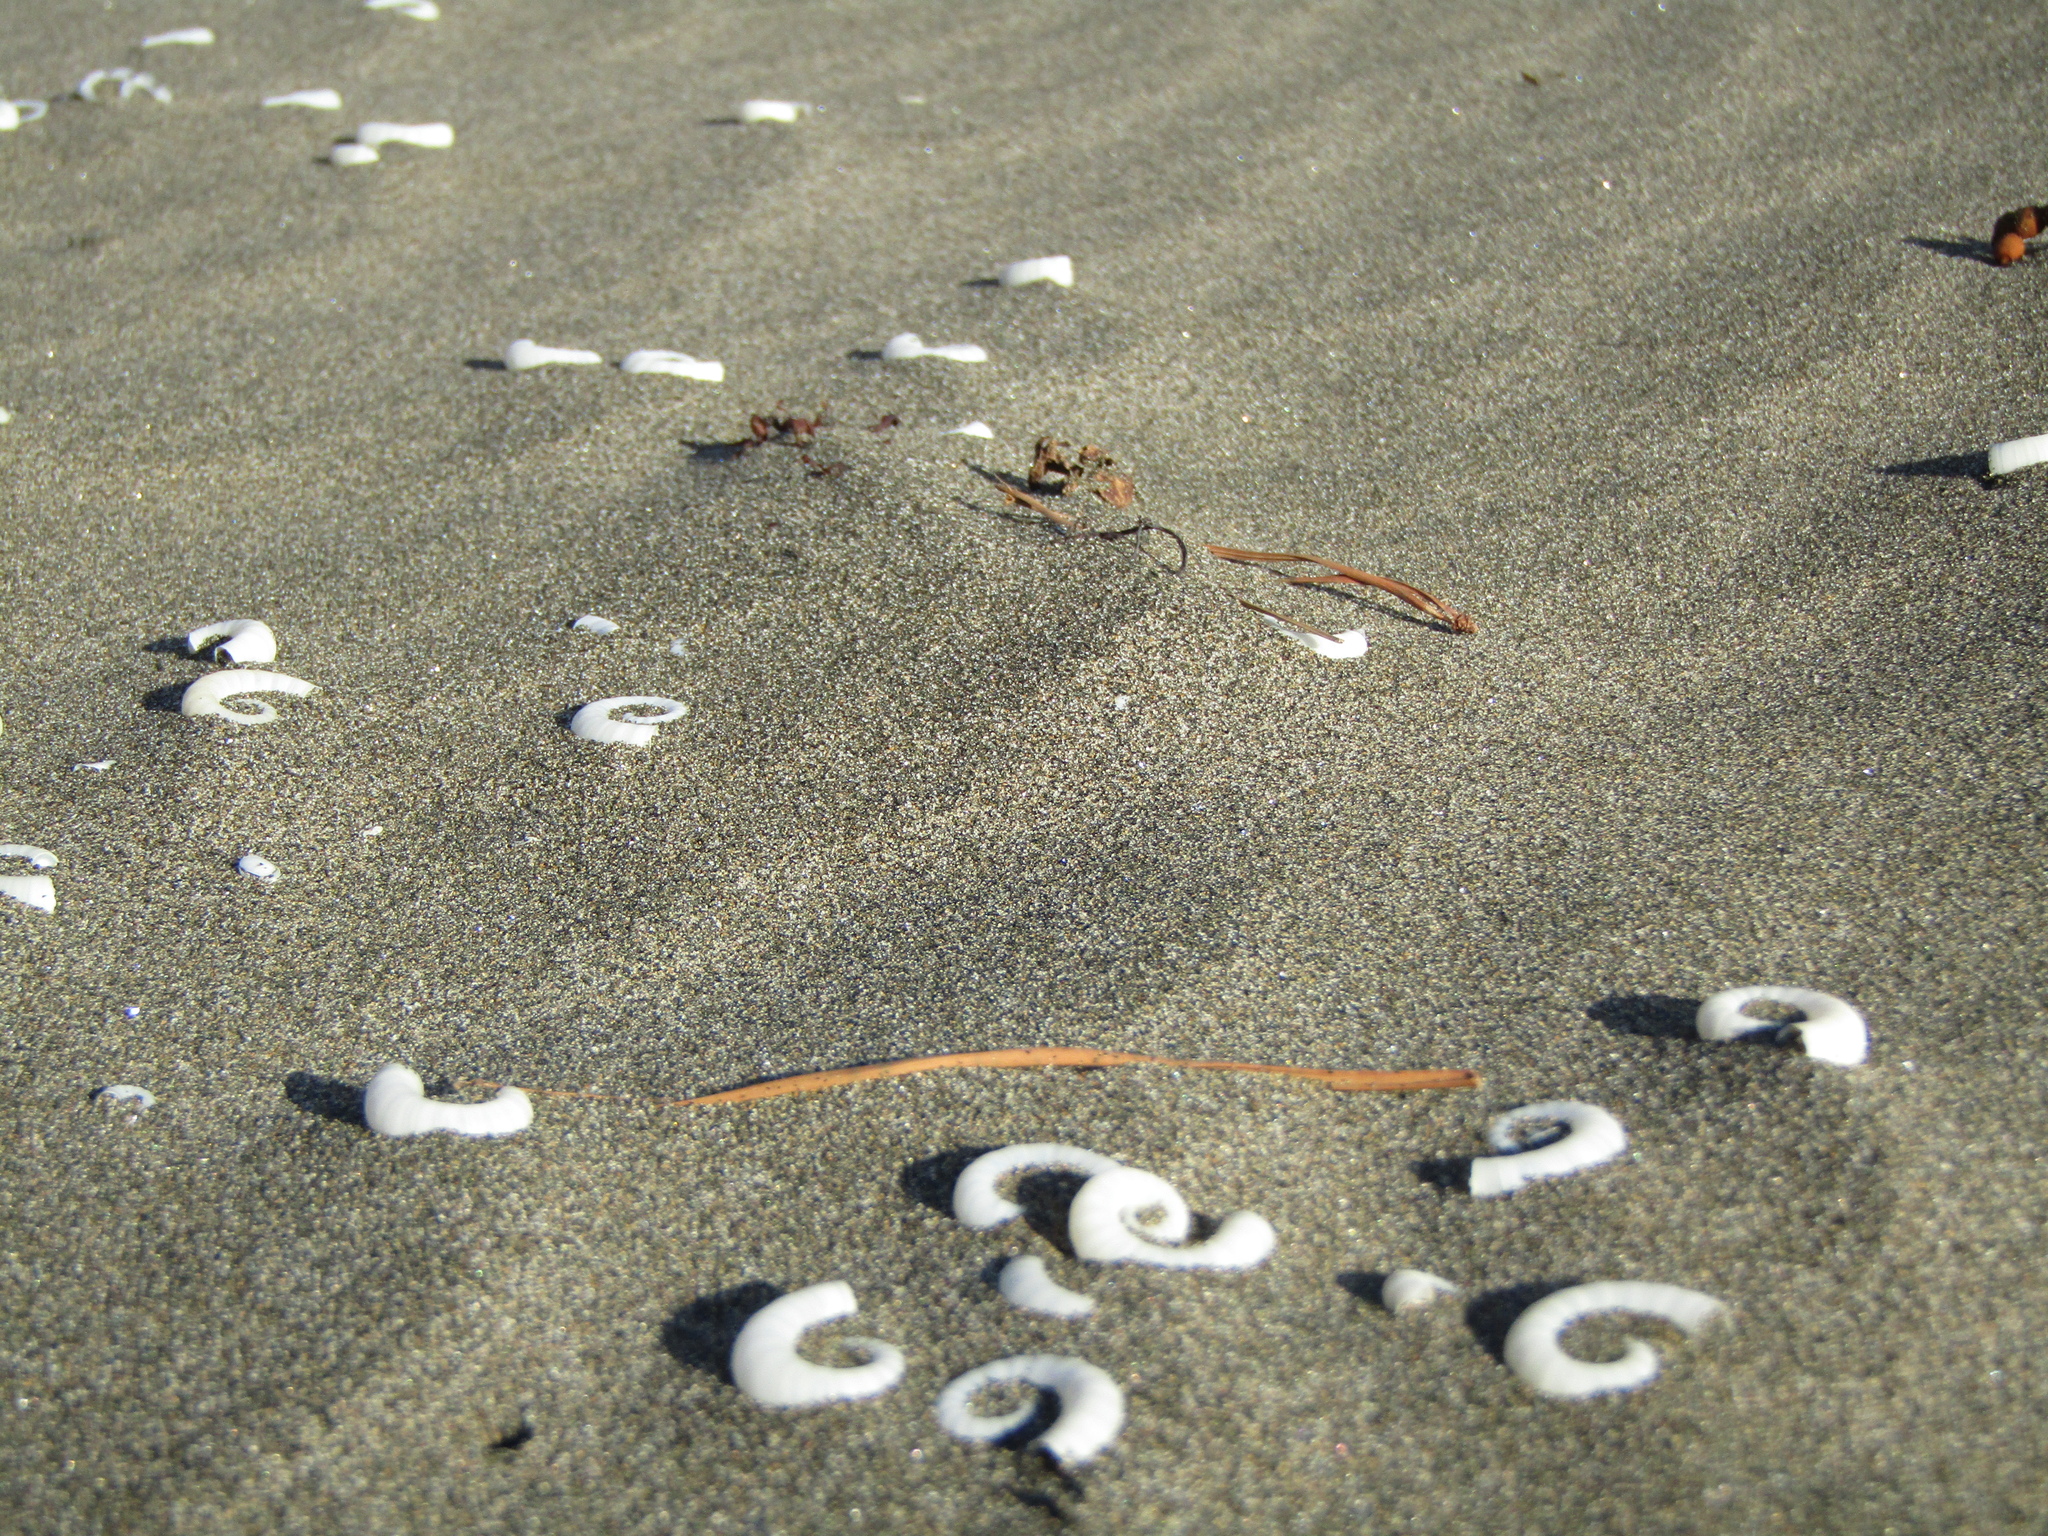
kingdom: Animalia
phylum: Mollusca
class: Cephalopoda
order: Spirulida
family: Spirulidae
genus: Spirula
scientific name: Spirula spirula
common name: Ram's horn squid
